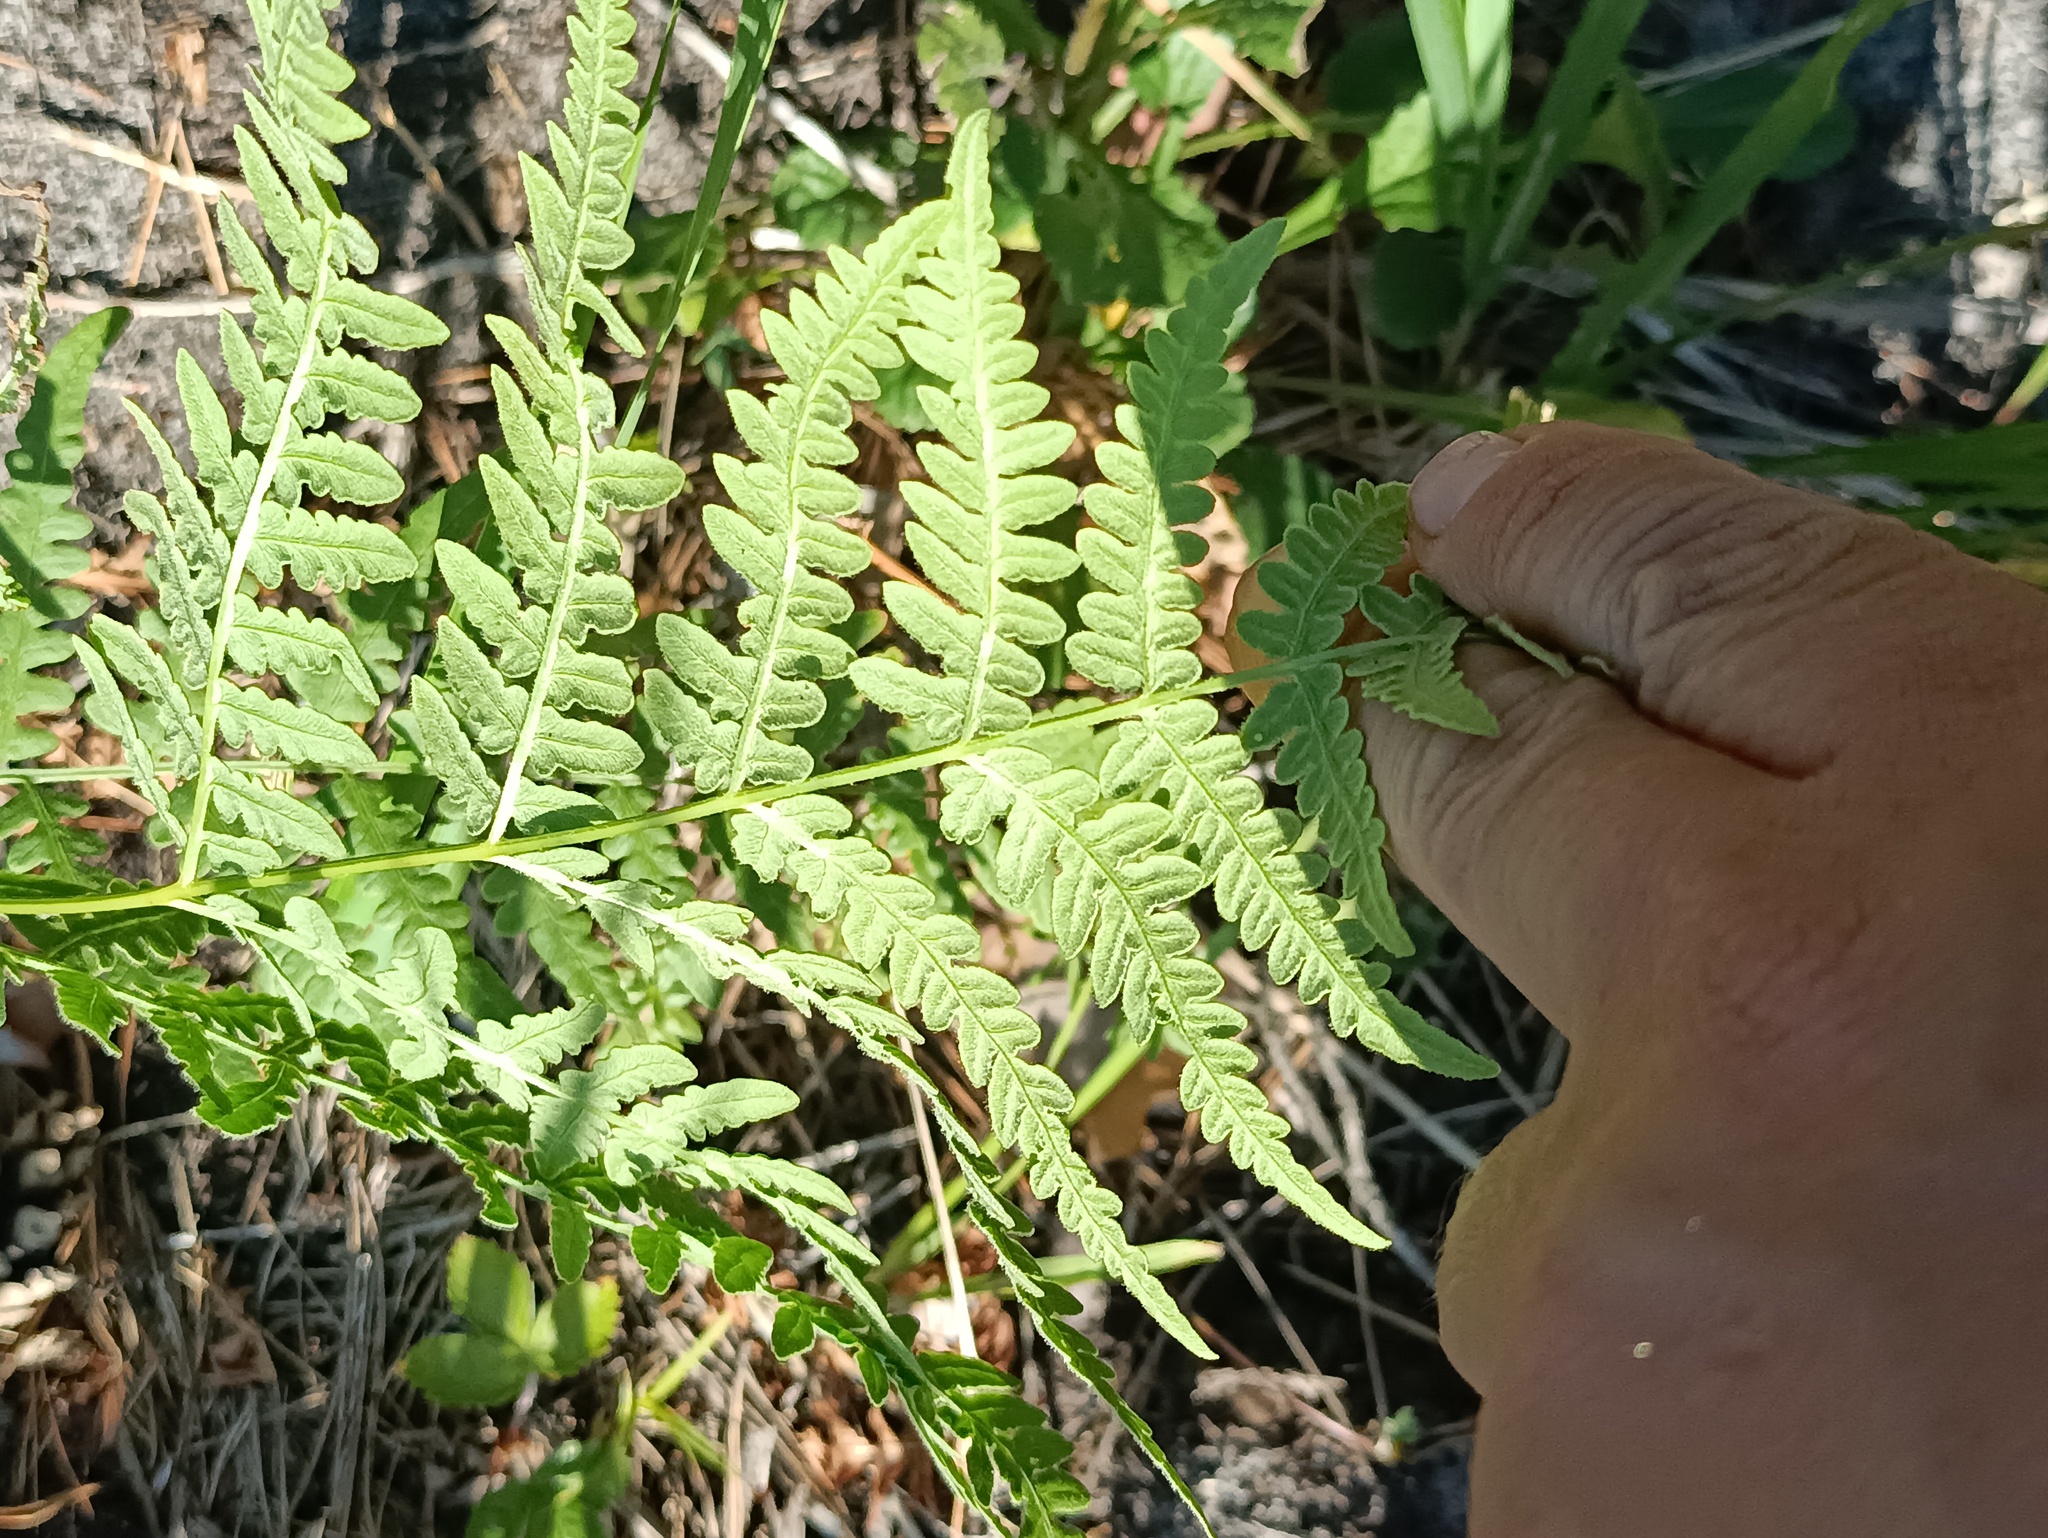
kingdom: Plantae
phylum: Tracheophyta
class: Polypodiopsida
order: Polypodiales
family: Dennstaedtiaceae
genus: Pteridium
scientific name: Pteridium aquilinum
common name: Bracken
